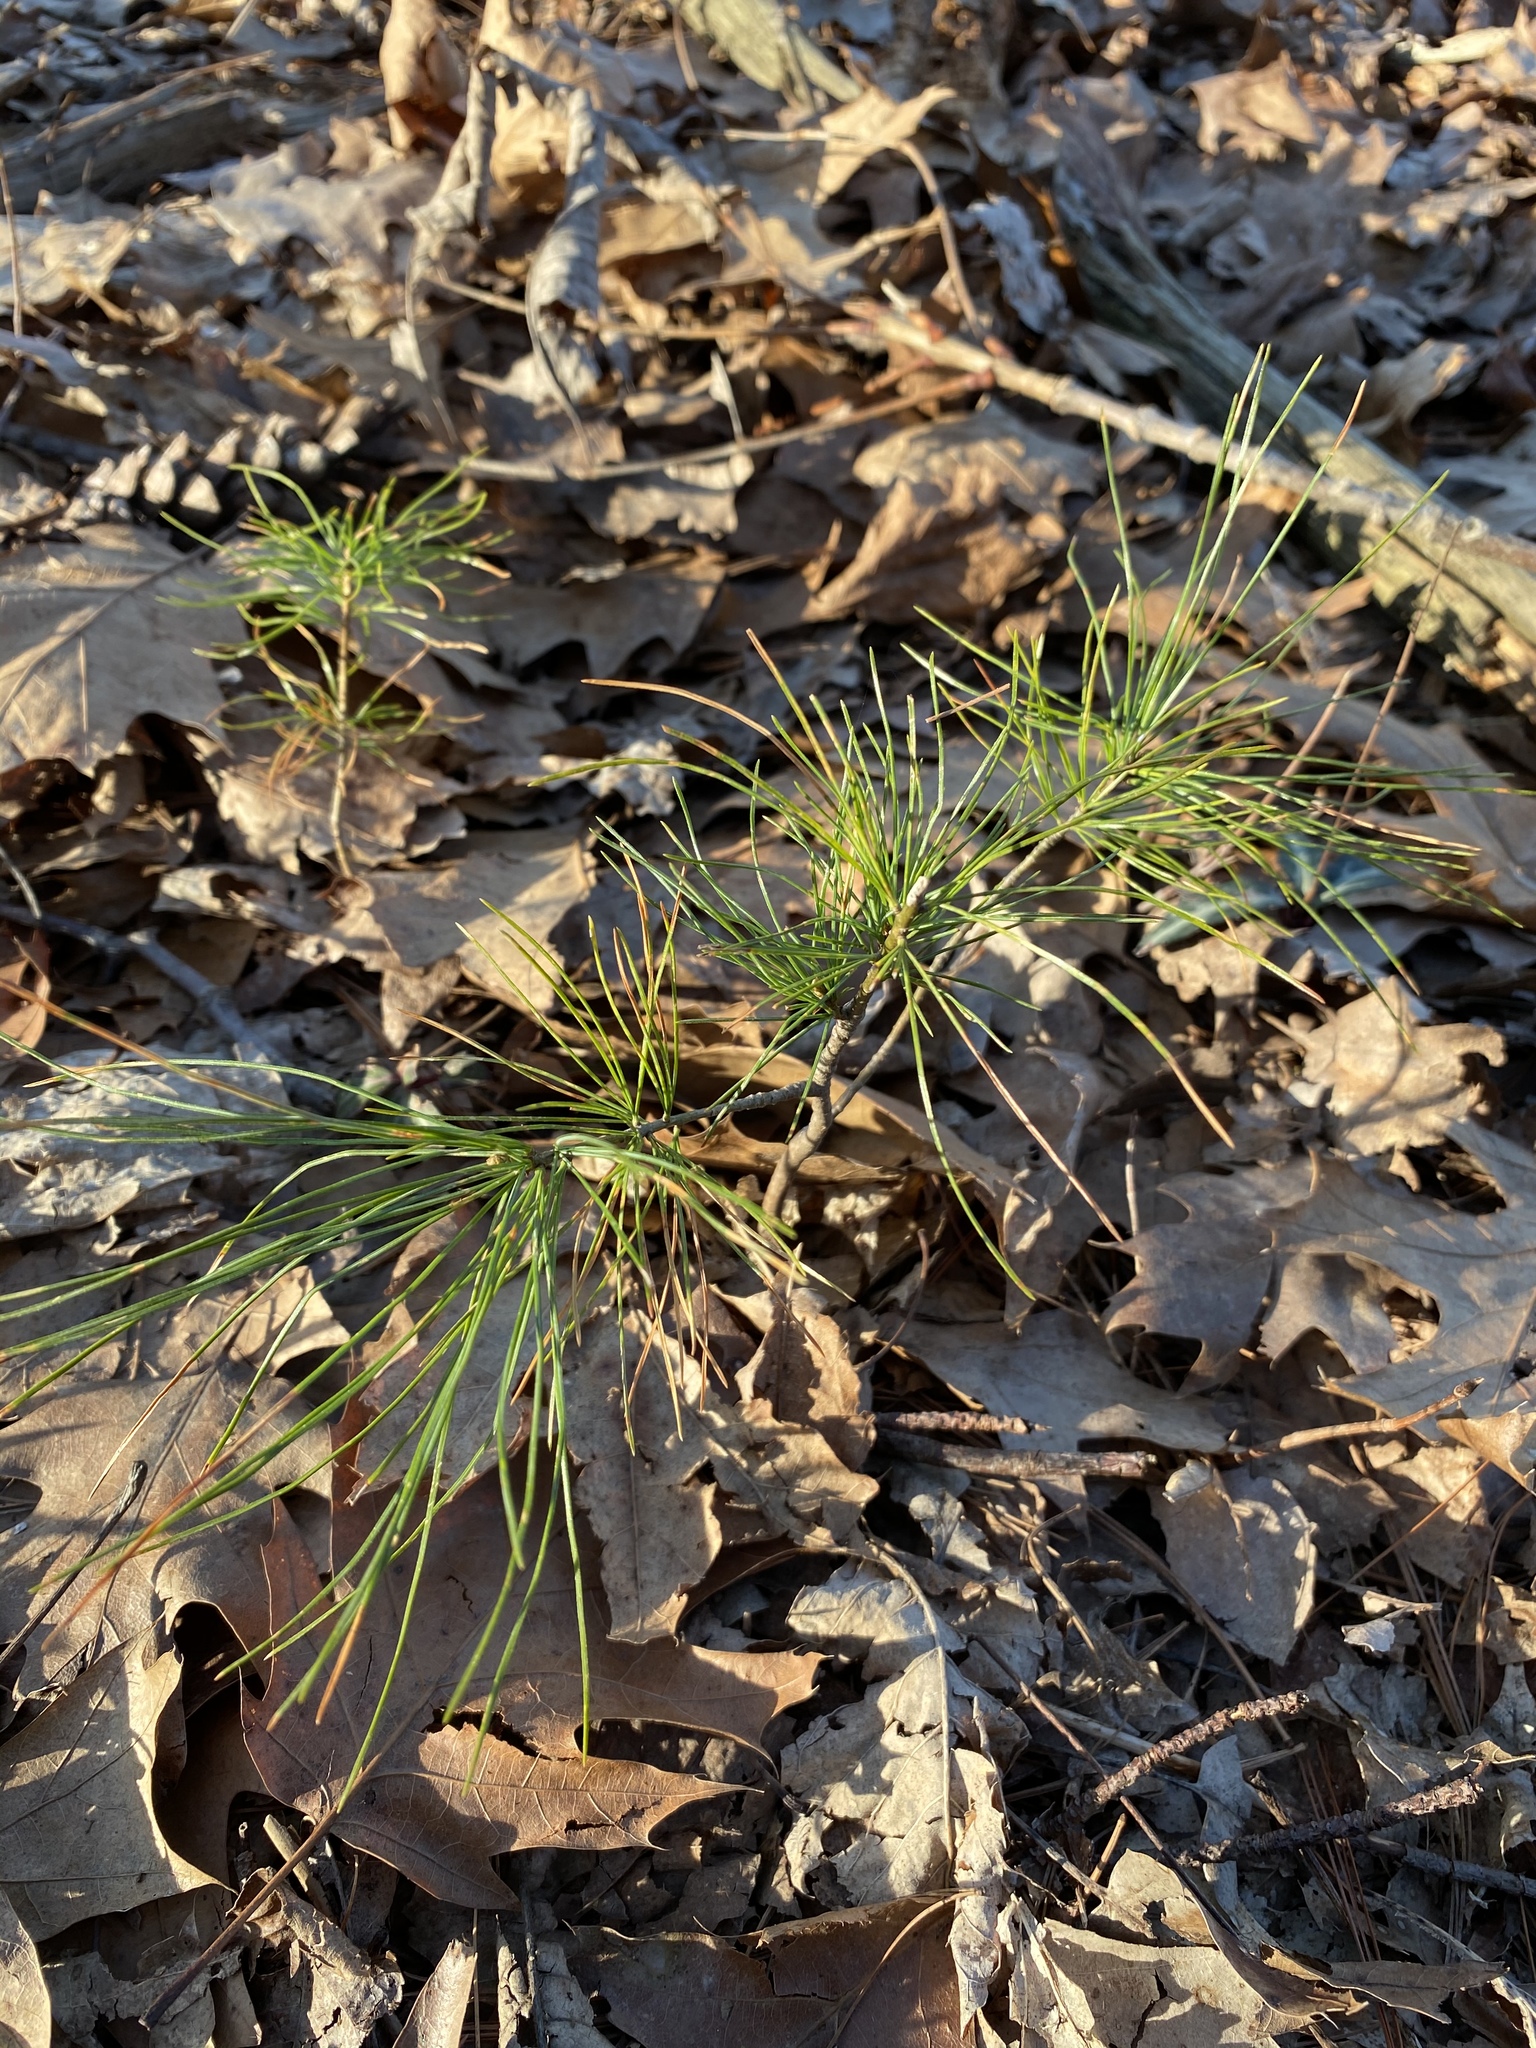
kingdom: Plantae
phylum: Tracheophyta
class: Pinopsida
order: Pinales
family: Pinaceae
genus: Pinus
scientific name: Pinus strobus
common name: Weymouth pine
